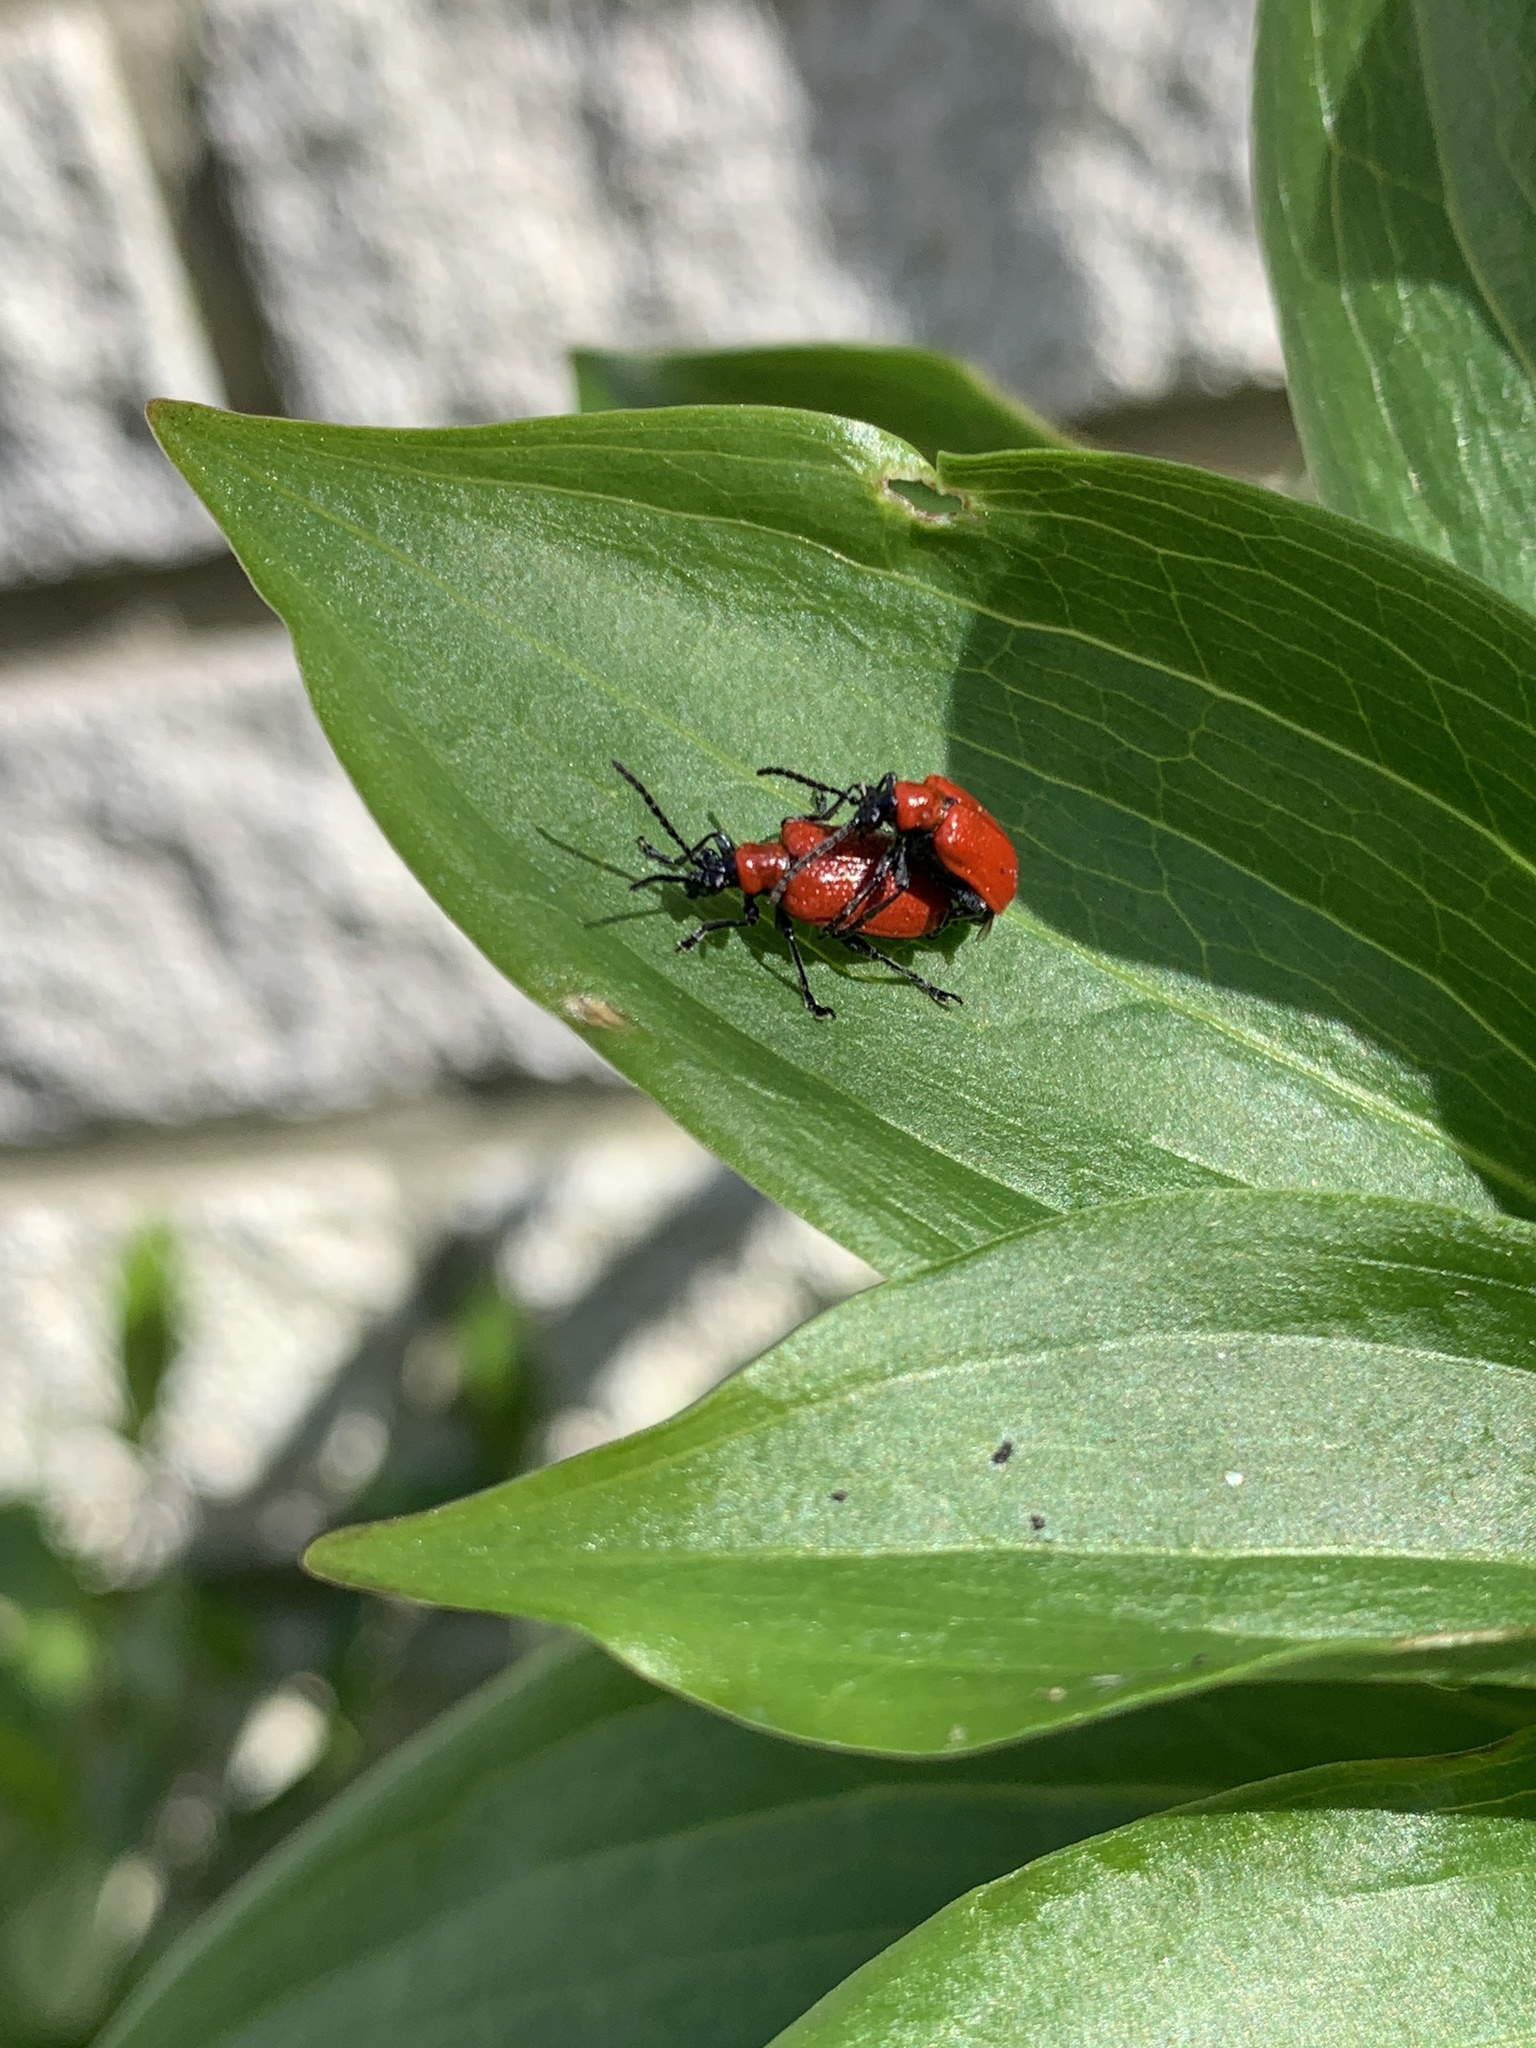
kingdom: Animalia
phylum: Arthropoda
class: Insecta
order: Coleoptera
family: Chrysomelidae
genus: Lilioceris
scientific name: Lilioceris lilii
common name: Lily beetle
